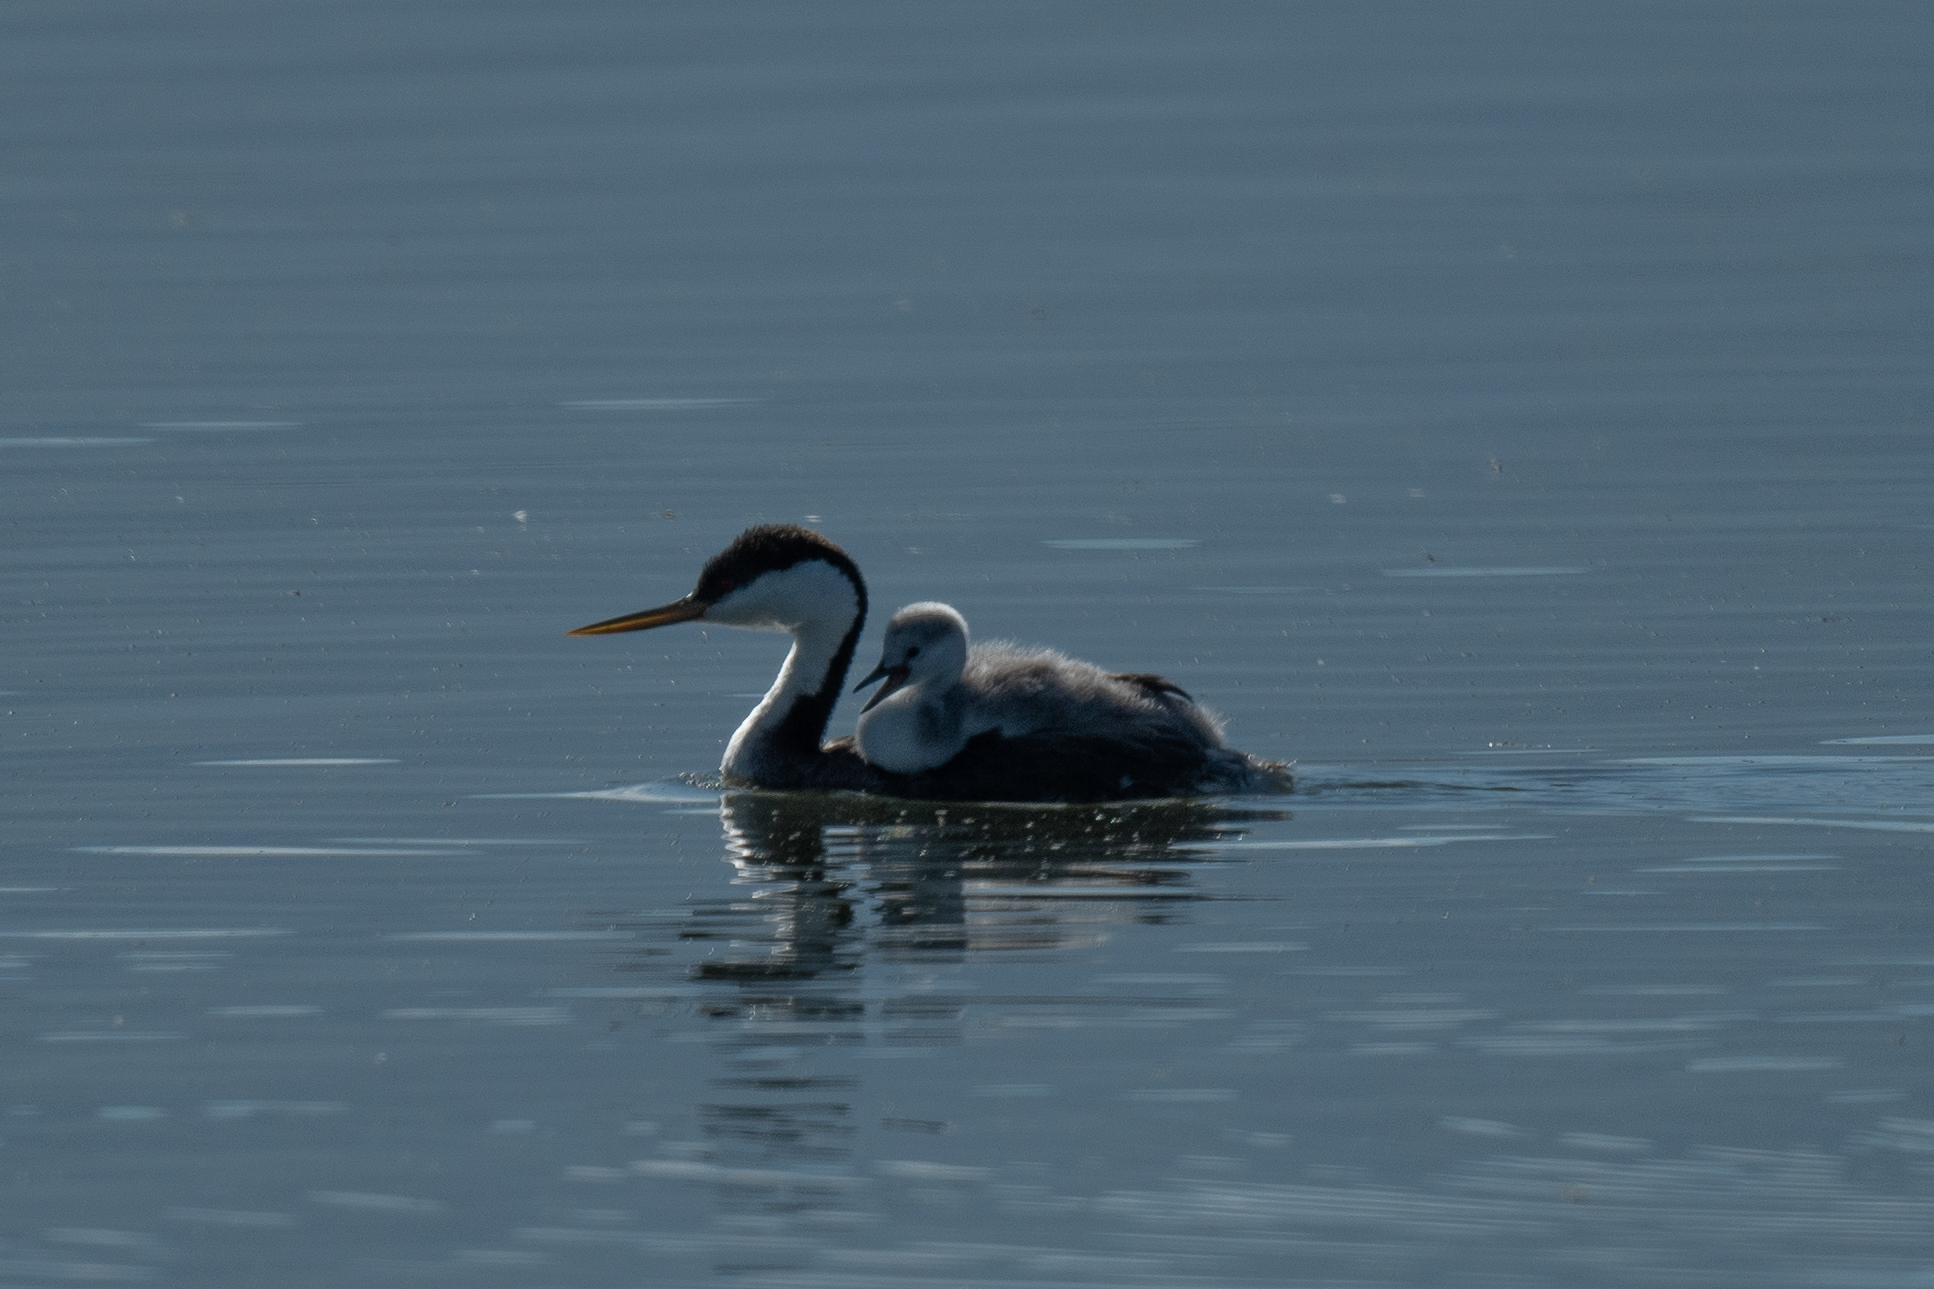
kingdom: Animalia
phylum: Chordata
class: Aves
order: Podicipediformes
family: Podicipedidae
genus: Aechmophorus
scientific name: Aechmophorus occidentalis
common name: Western grebe
